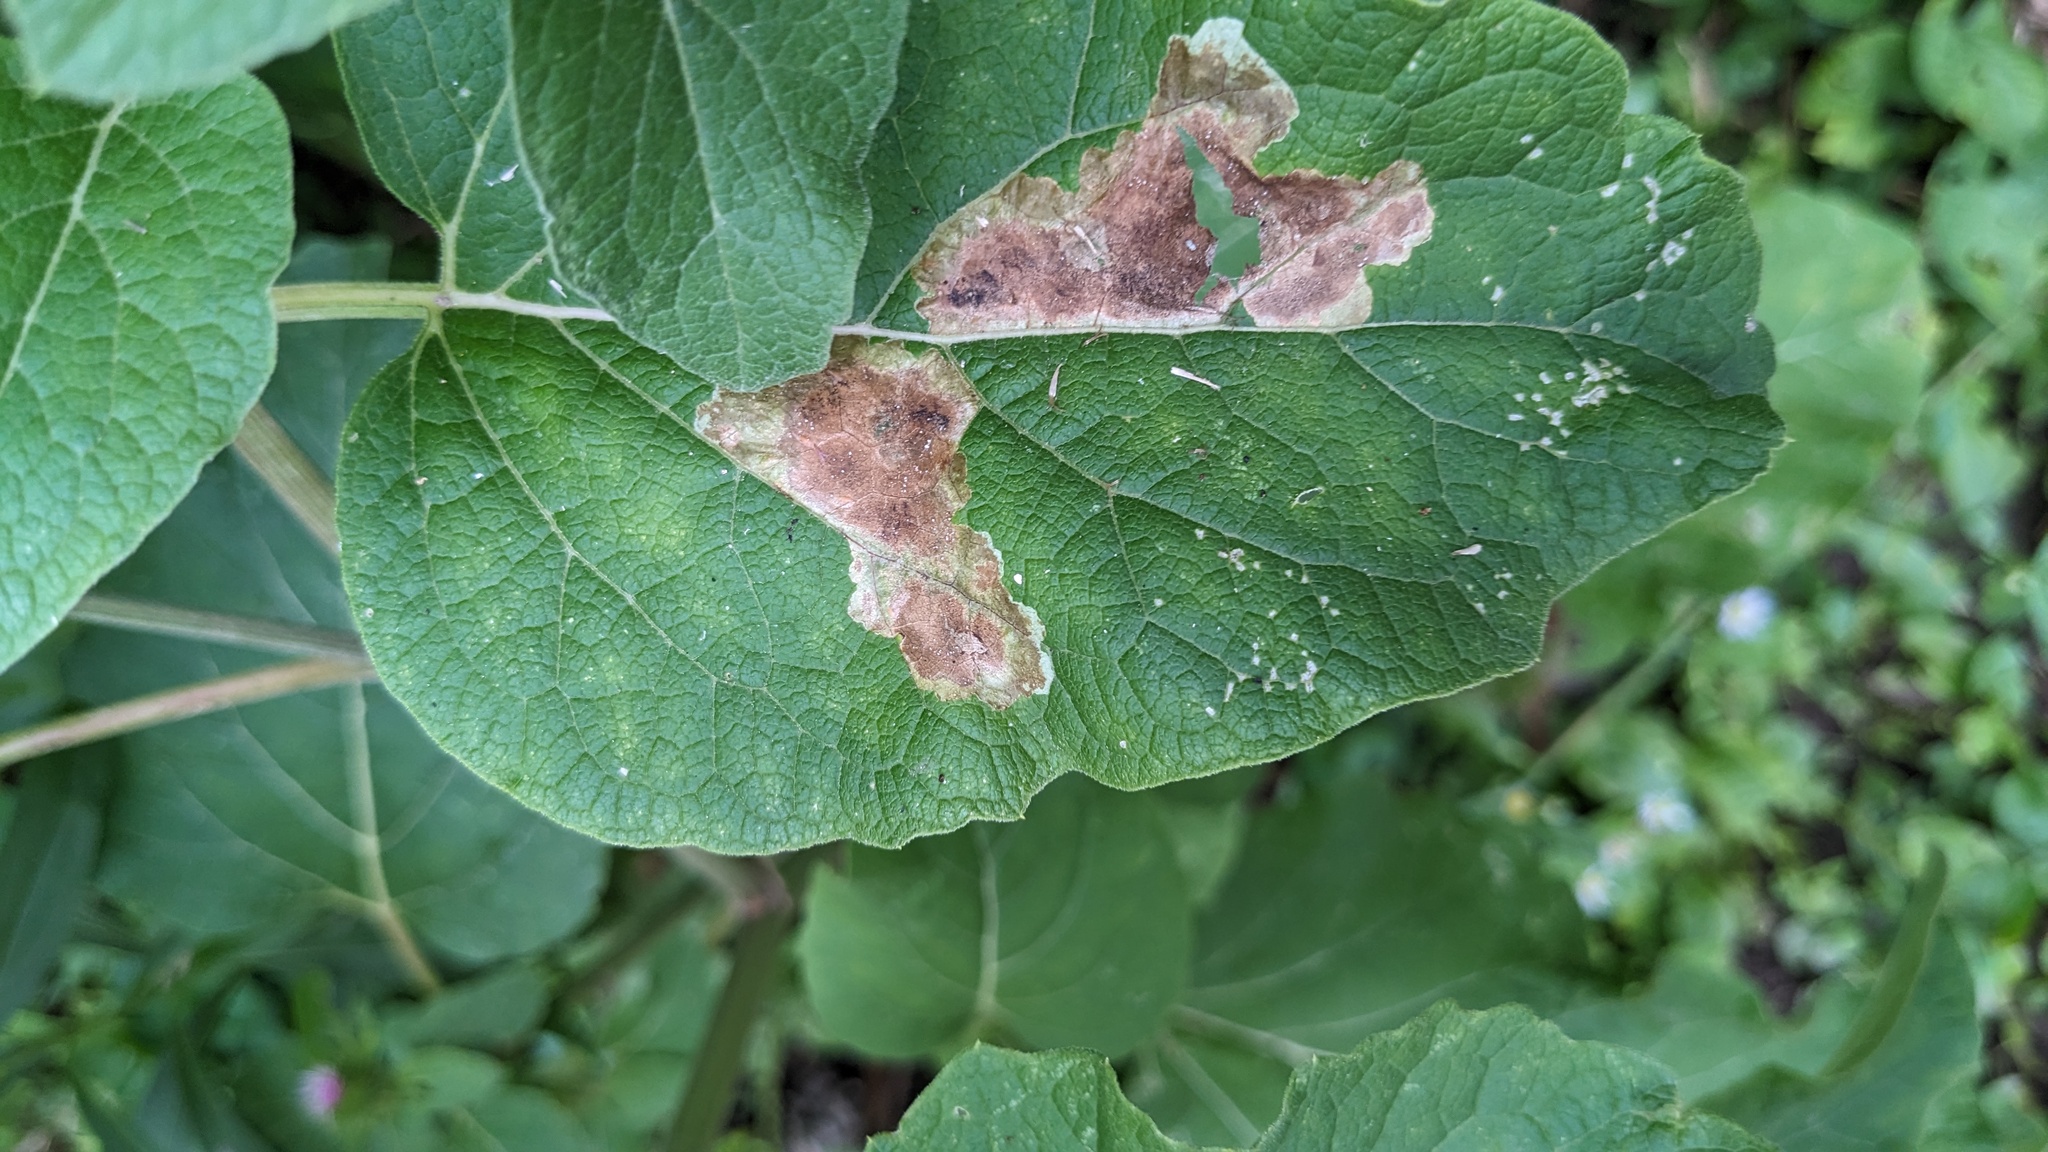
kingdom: Animalia
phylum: Arthropoda
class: Insecta
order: Diptera
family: Agromyzidae
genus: Calycomyza
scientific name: Calycomyza flavinotum
